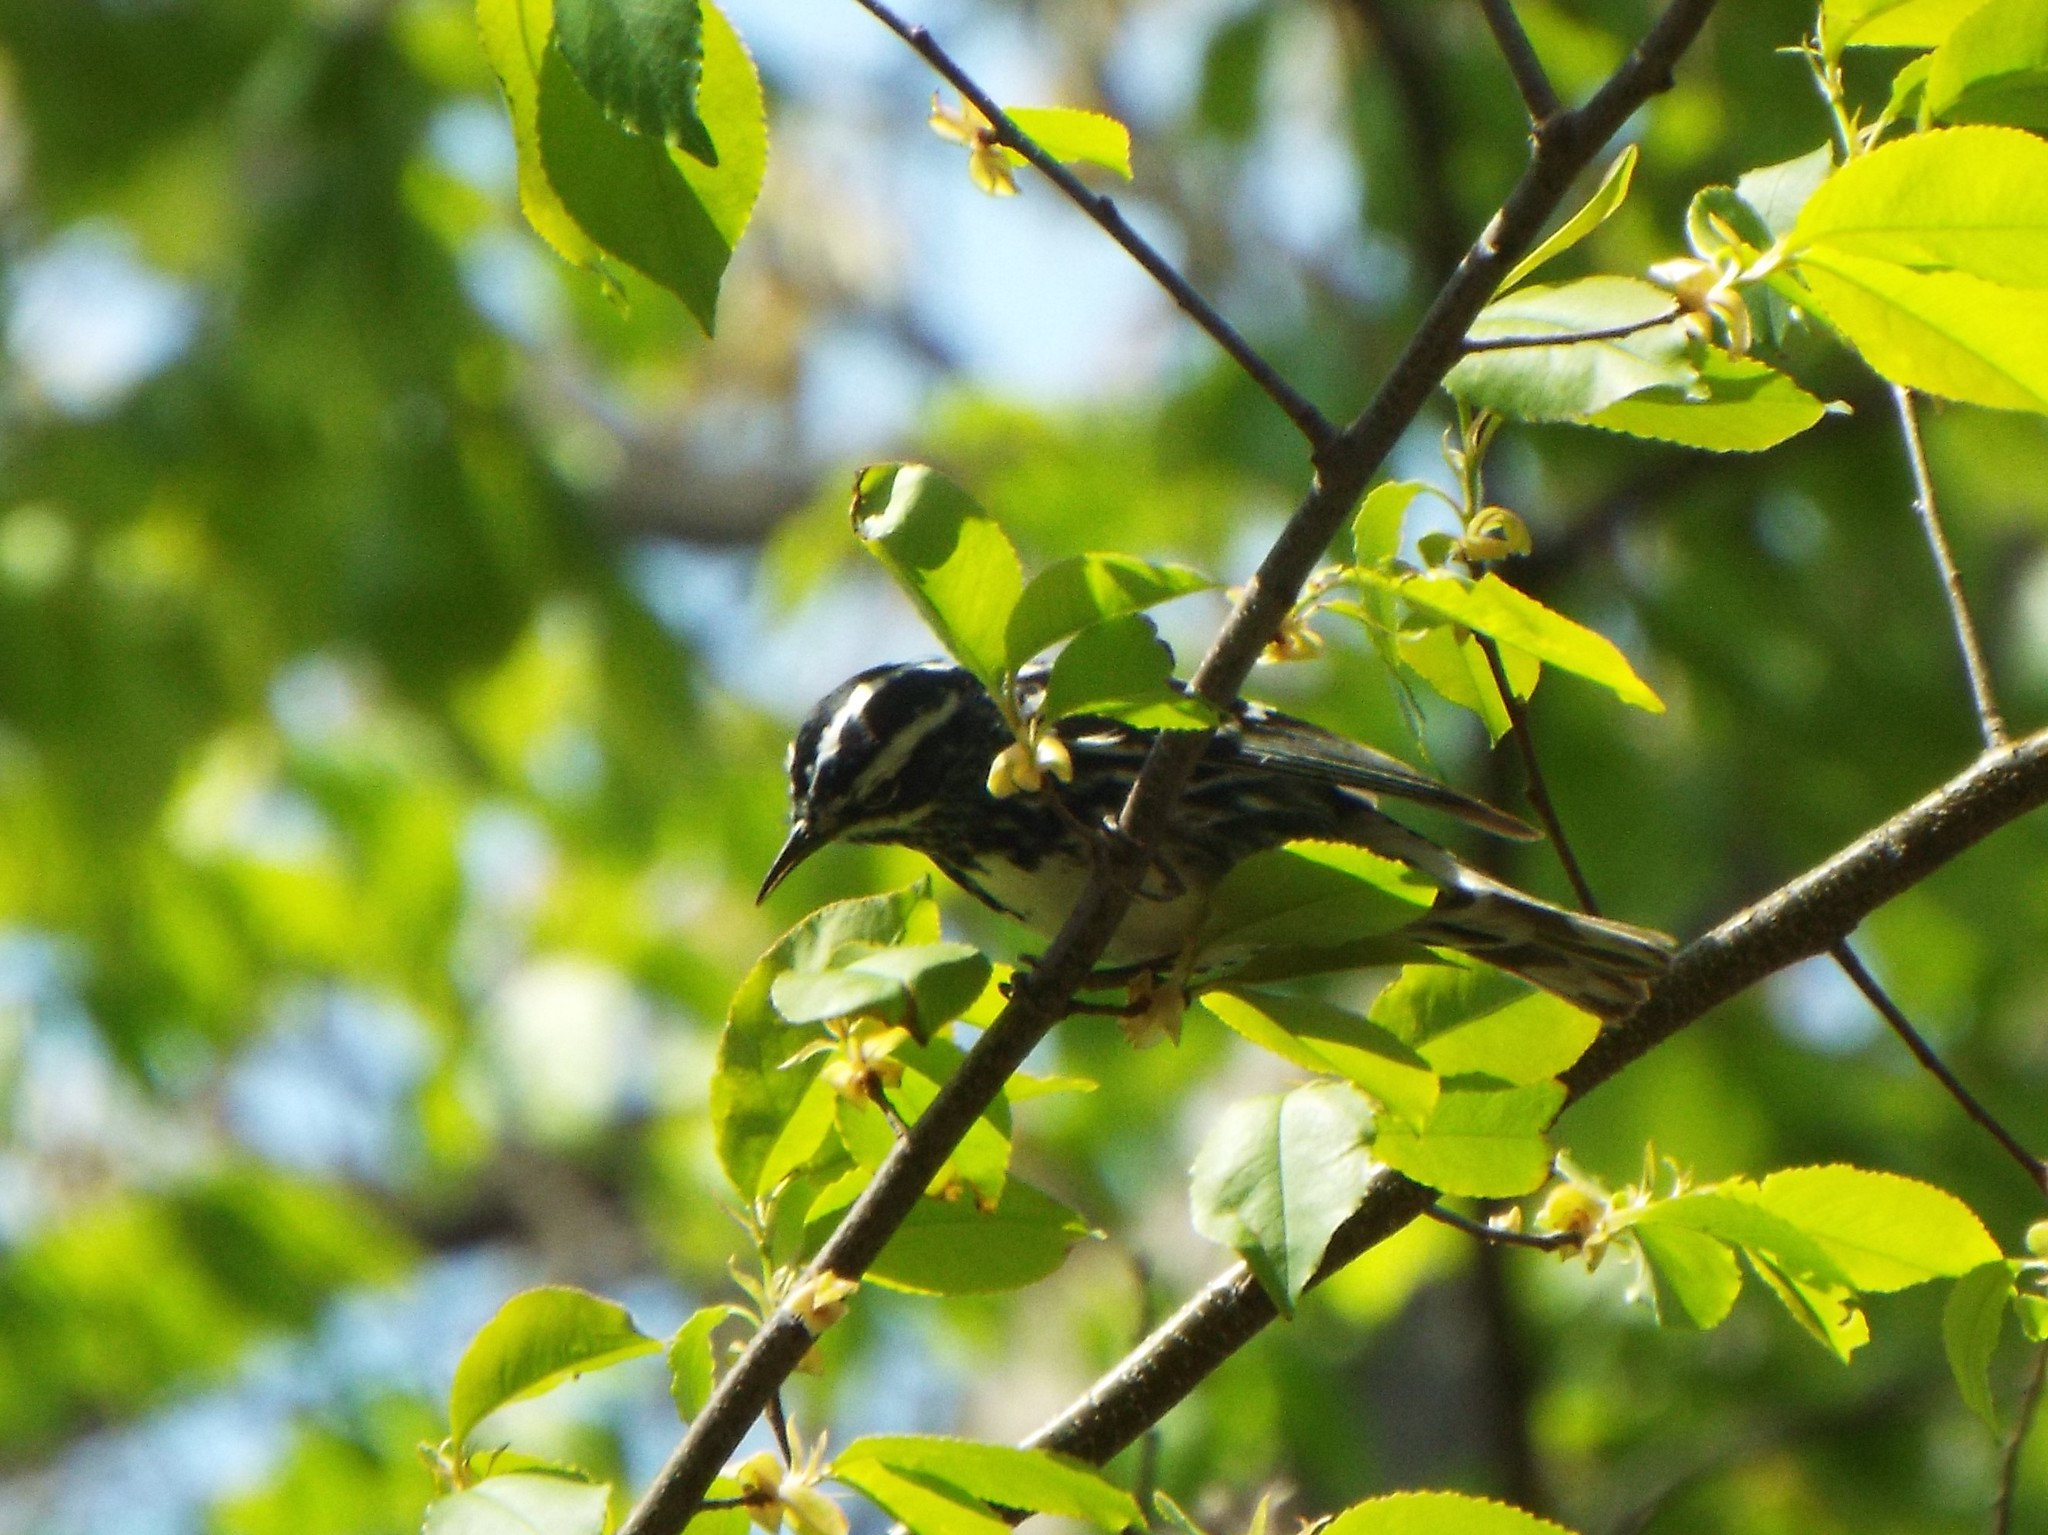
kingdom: Animalia
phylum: Chordata
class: Aves
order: Passeriformes
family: Parulidae
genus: Mniotilta
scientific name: Mniotilta varia
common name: Black-and-white warbler
